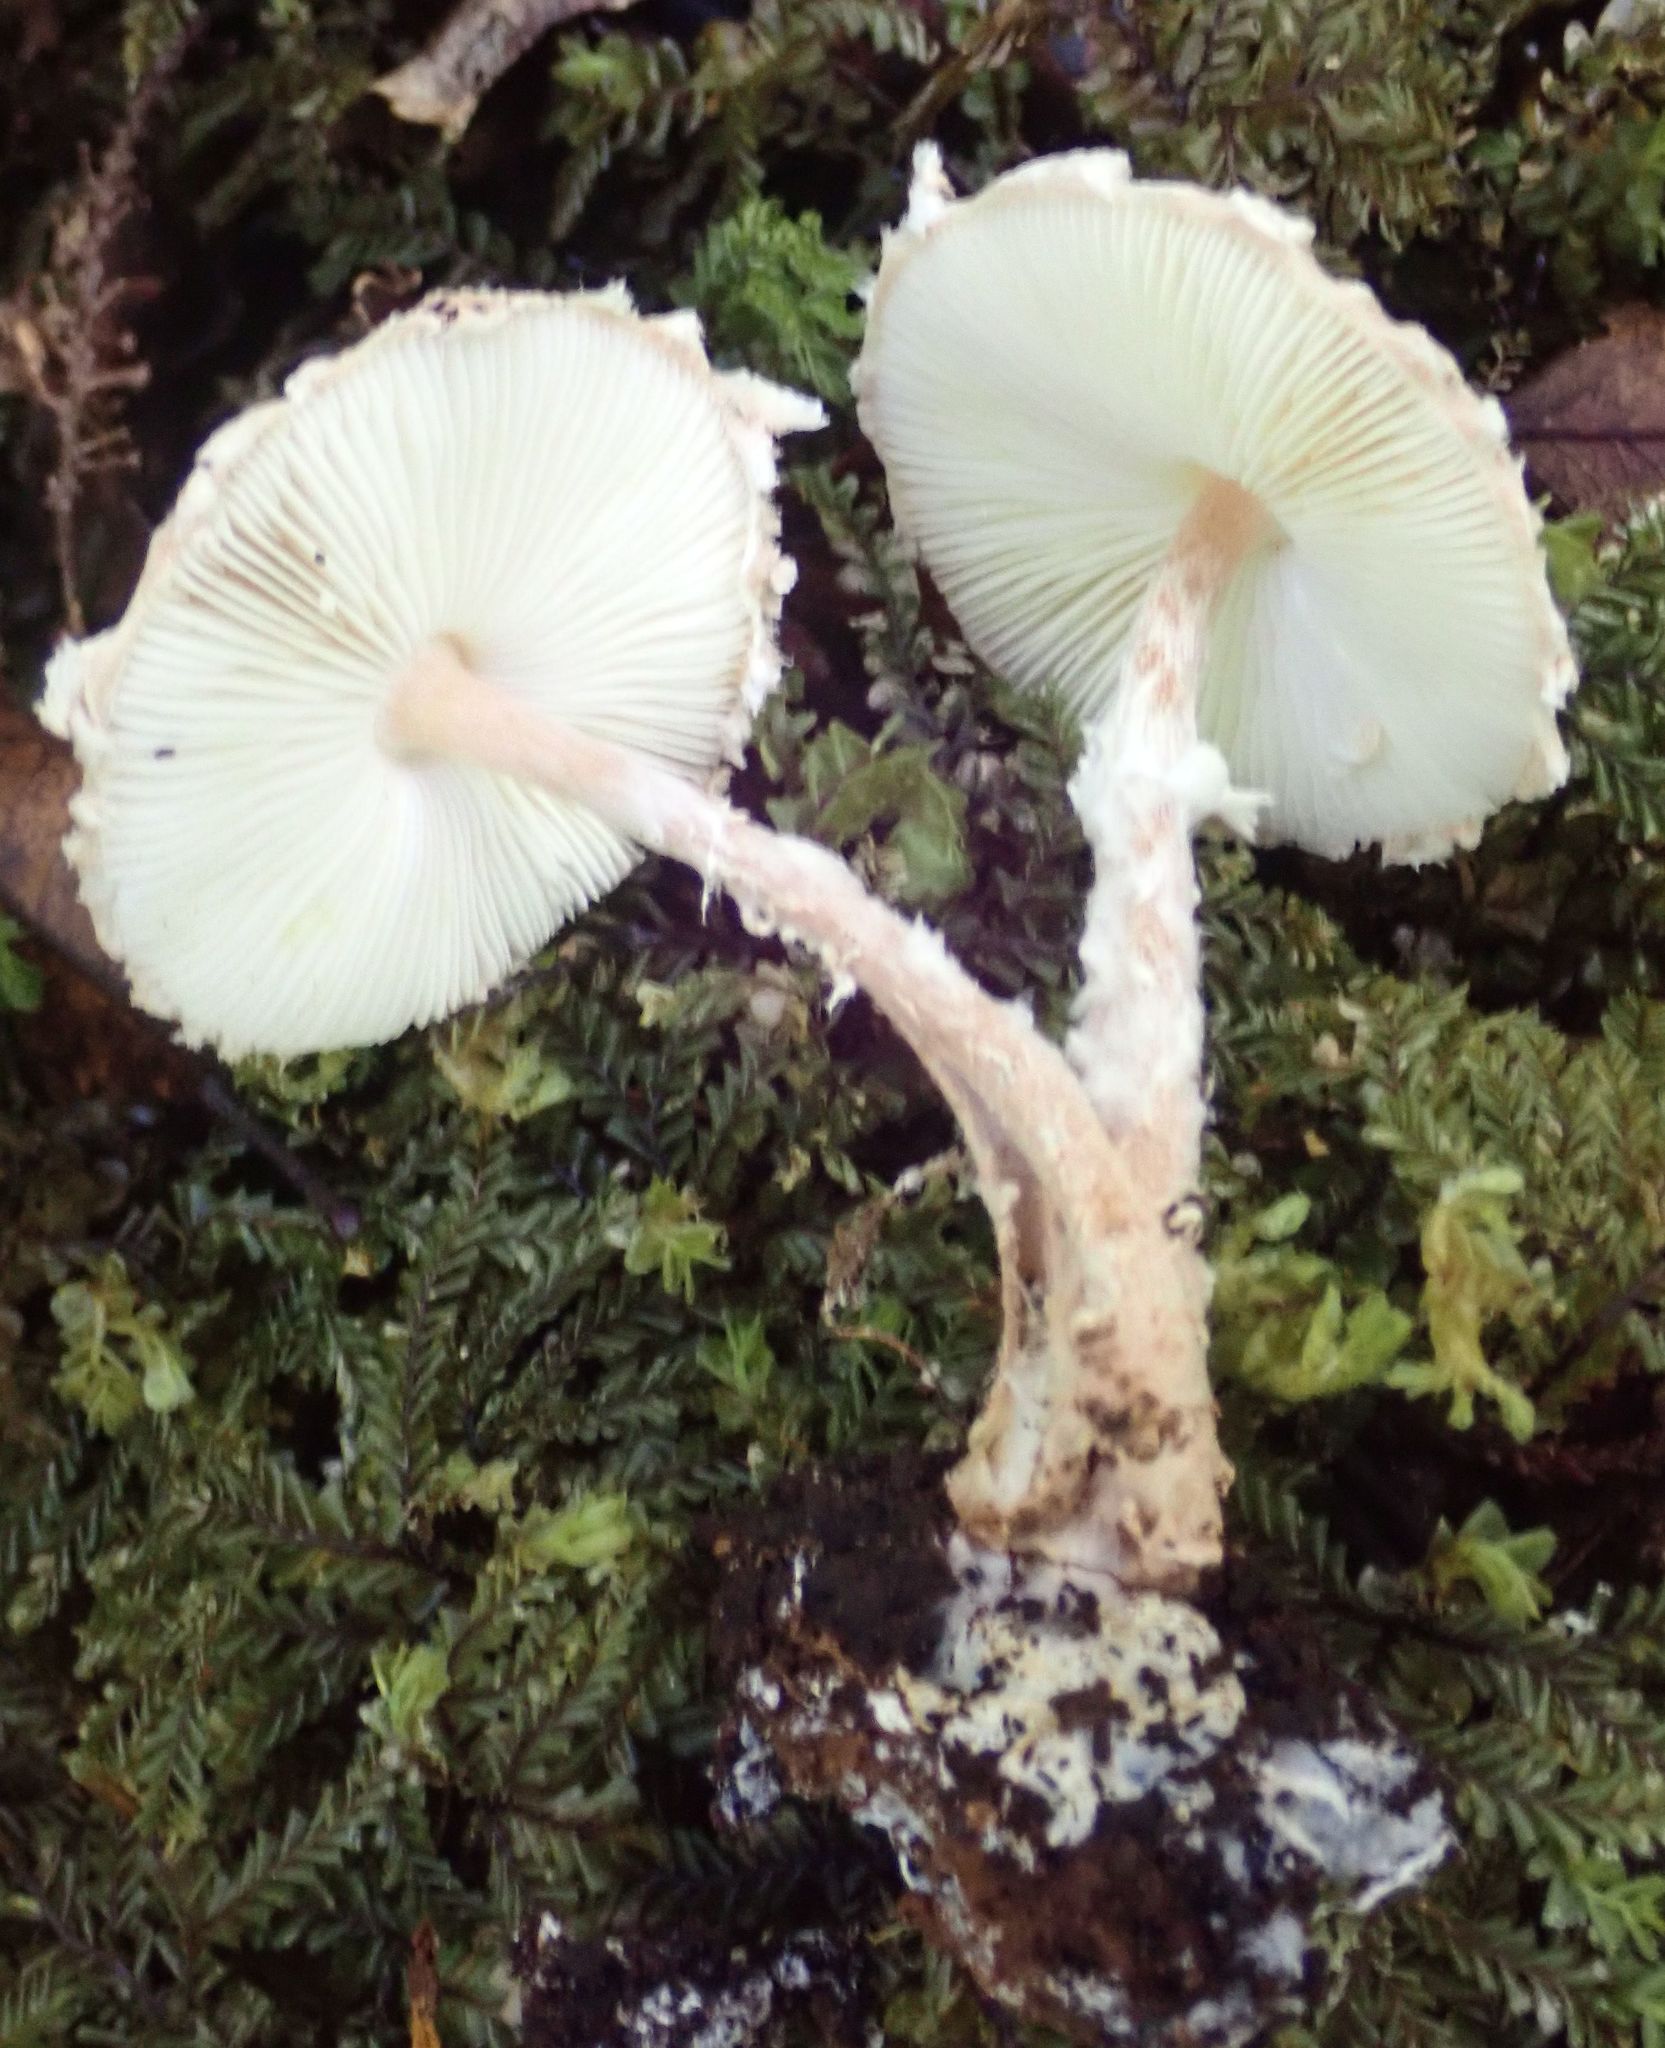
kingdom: Fungi
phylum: Basidiomycota
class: Agaricomycetes
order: Agaricales
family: Agaricaceae
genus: Cystolepiota
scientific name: Cystolepiota hetieri
